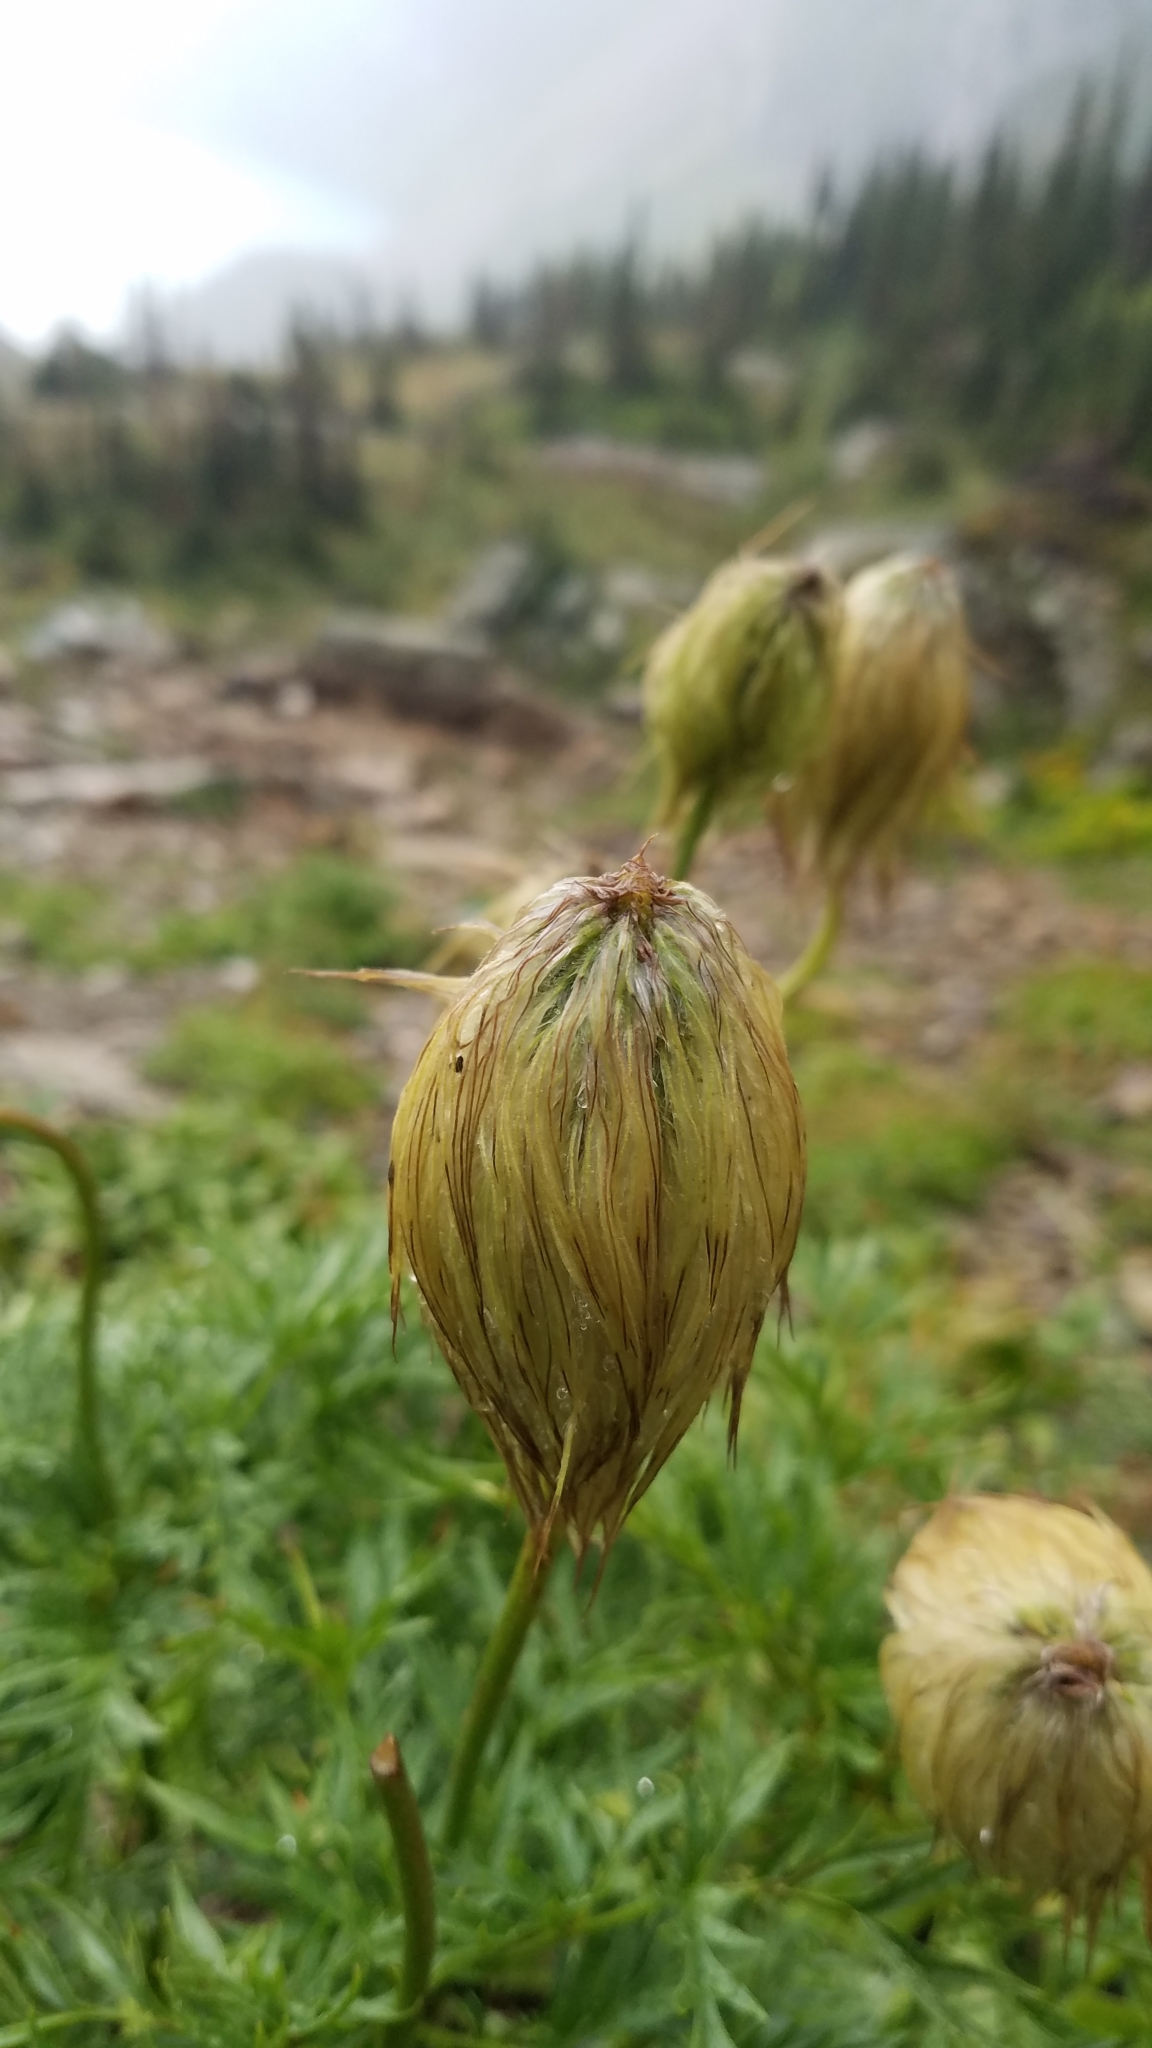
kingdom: Plantae
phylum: Tracheophyta
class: Magnoliopsida
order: Ranunculales
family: Ranunculaceae
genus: Pulsatilla
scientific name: Pulsatilla occidentalis
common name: Mountain pasqueflower
